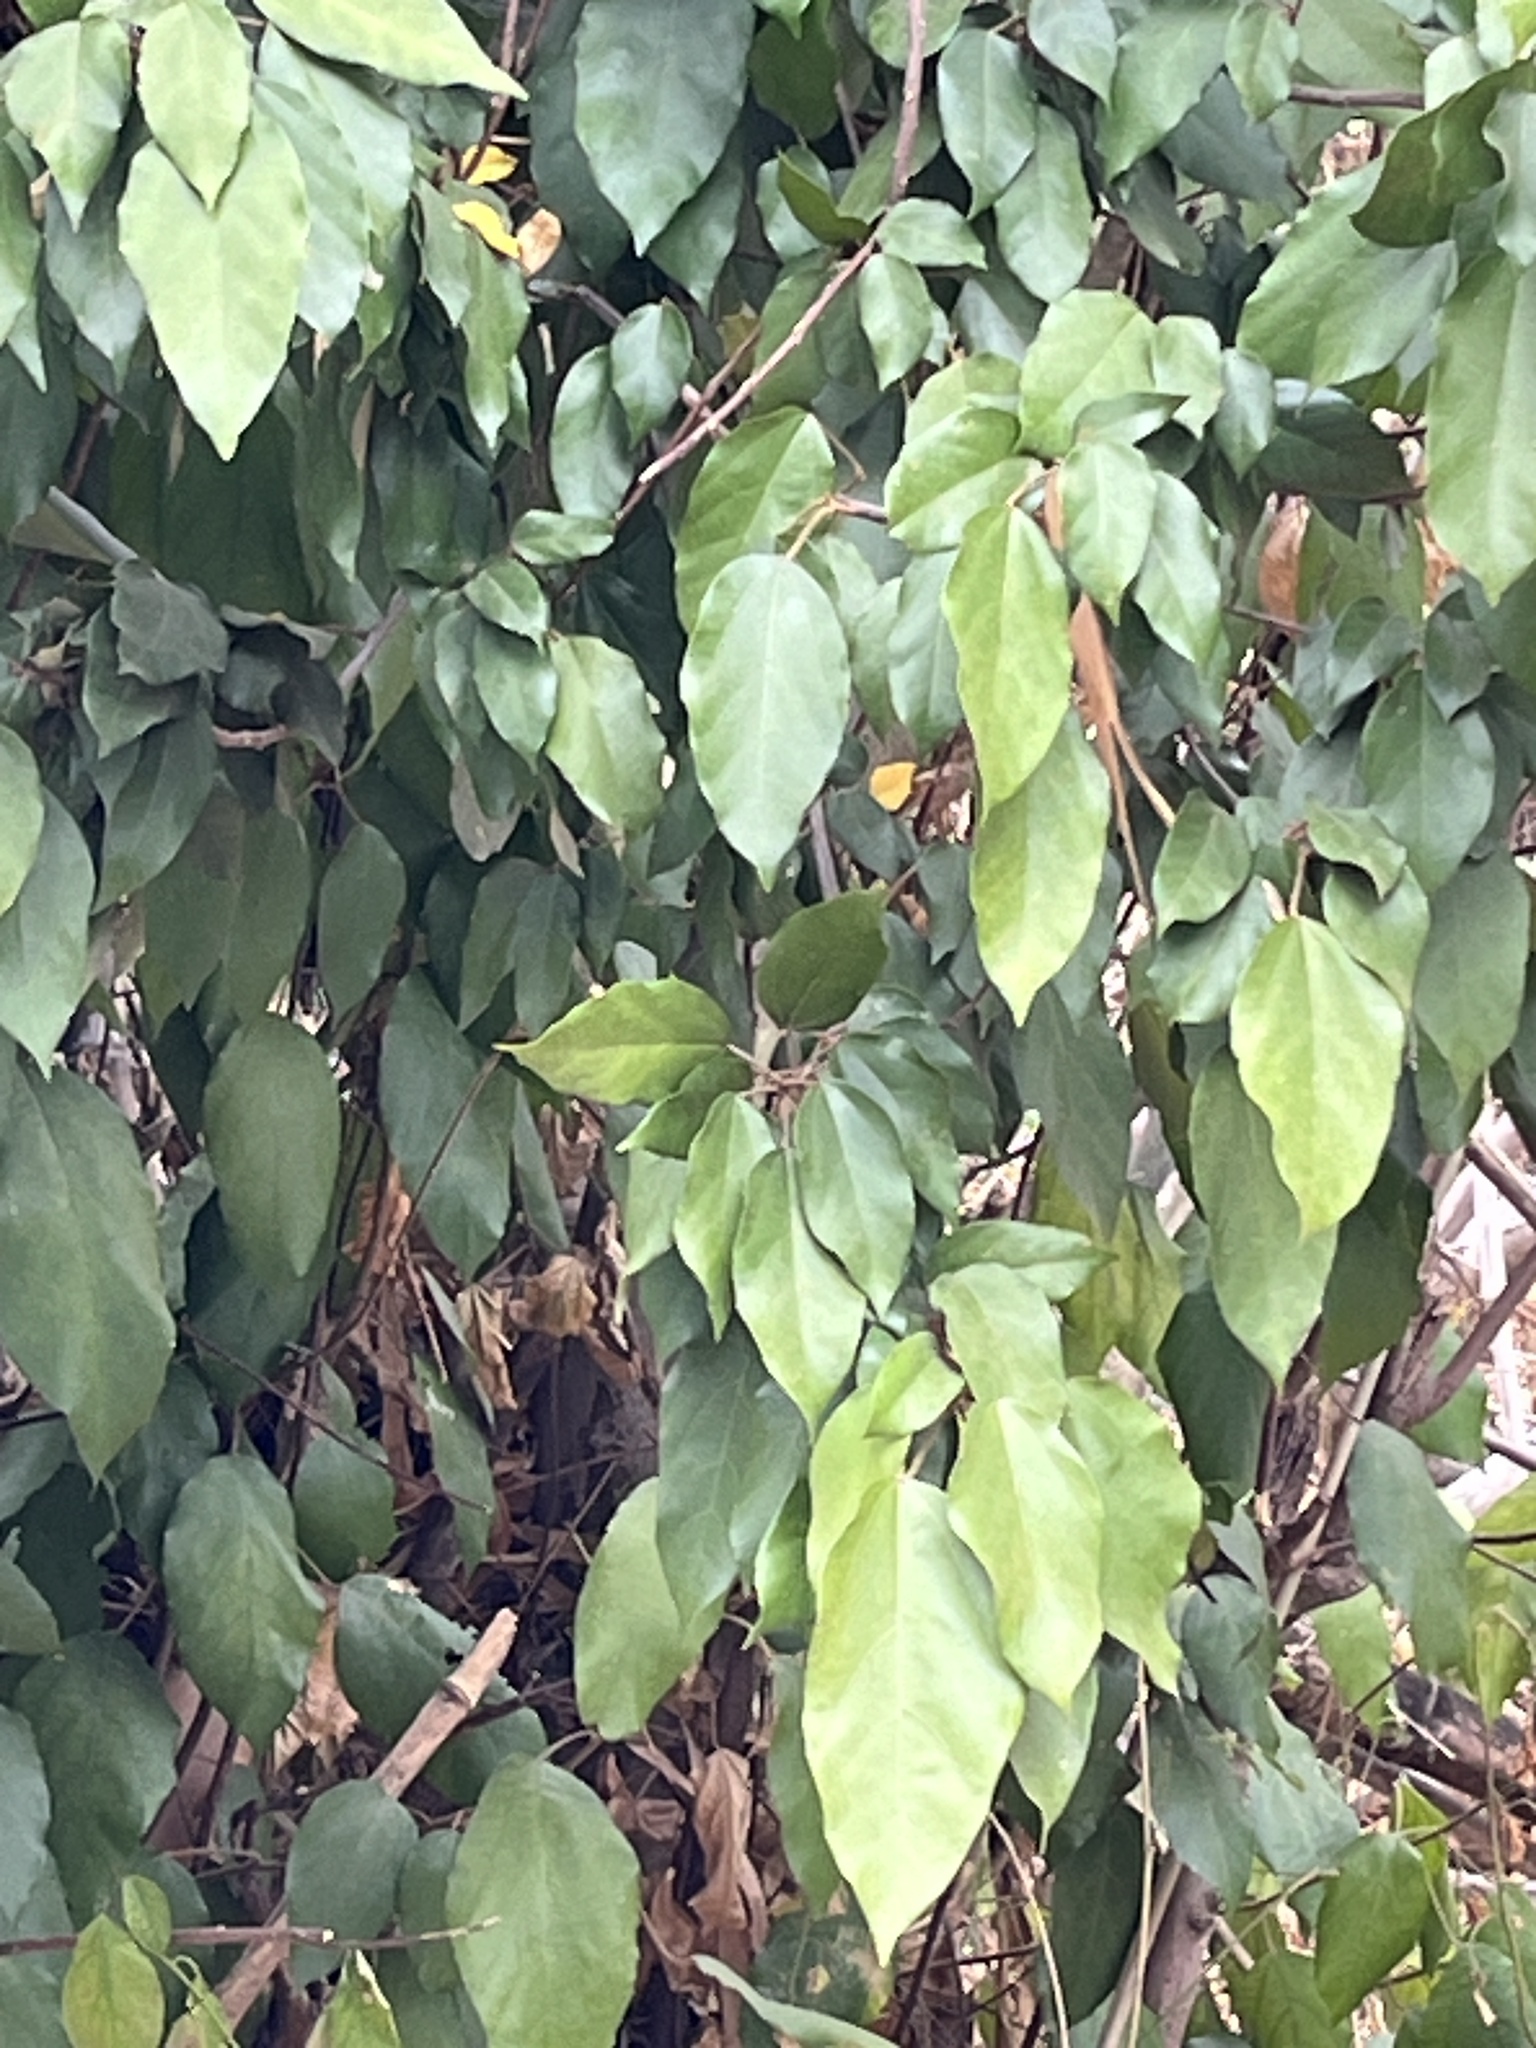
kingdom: Plantae
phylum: Tracheophyta
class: Magnoliopsida
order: Malpighiales
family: Euphorbiaceae
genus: Mallotus
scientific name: Mallotus philippensis
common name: Kamala tree
